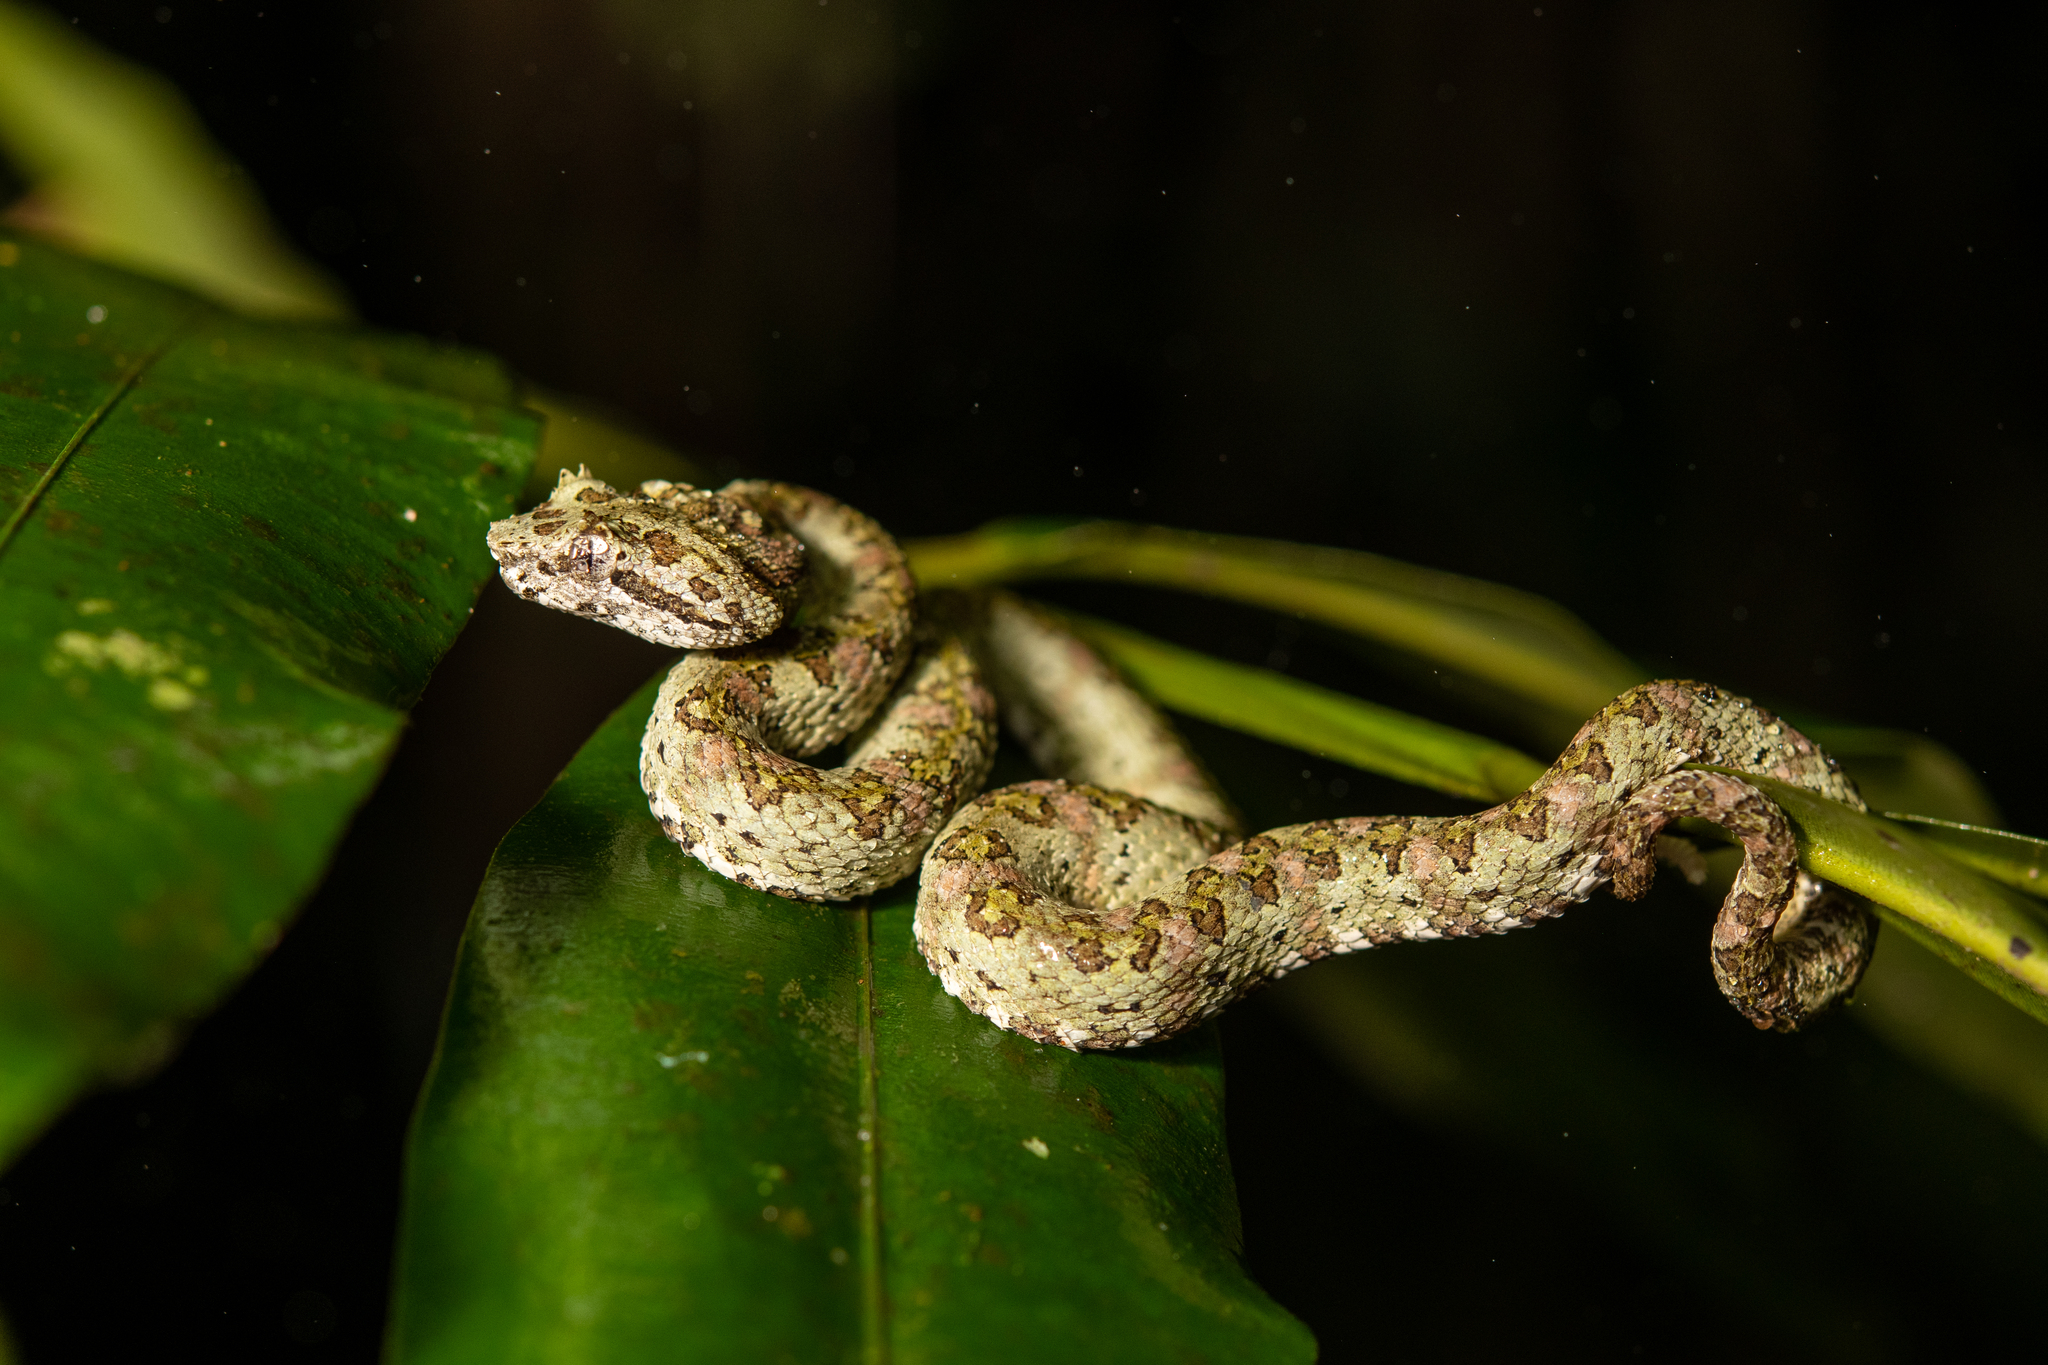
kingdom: Animalia
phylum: Chordata
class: Squamata
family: Viperidae
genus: Bothriechis
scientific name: Bothriechis schlegelii
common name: Eyelash viper
